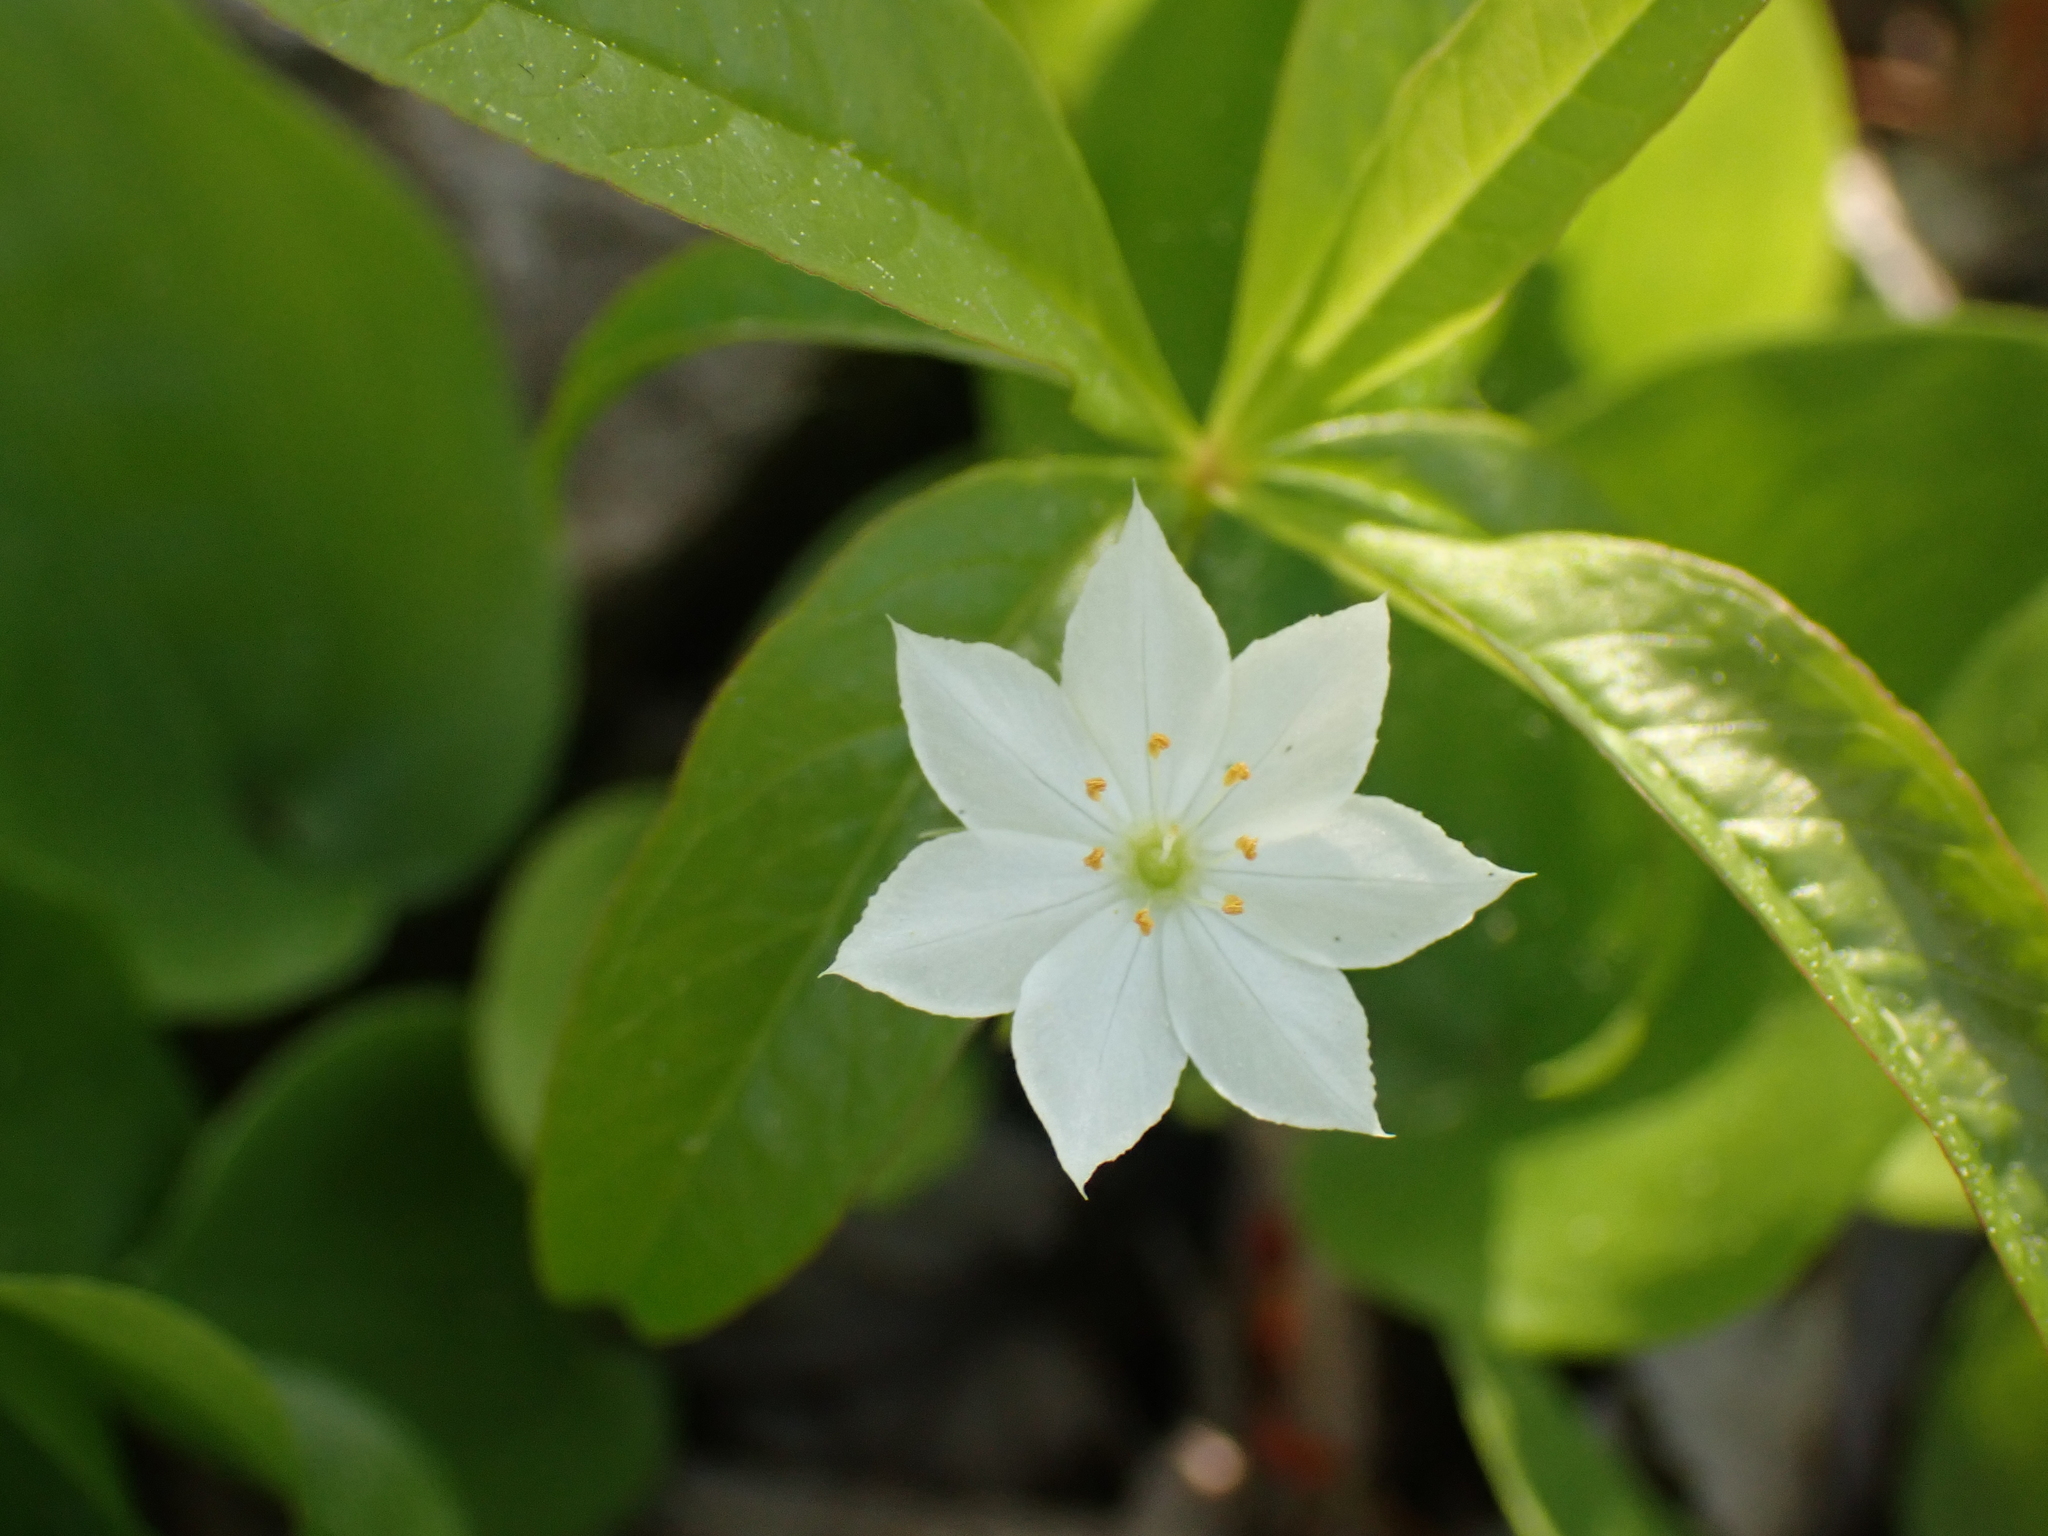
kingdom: Plantae
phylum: Tracheophyta
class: Magnoliopsida
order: Ericales
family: Primulaceae
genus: Lysimachia
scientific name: Lysimachia borealis
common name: American starflower
